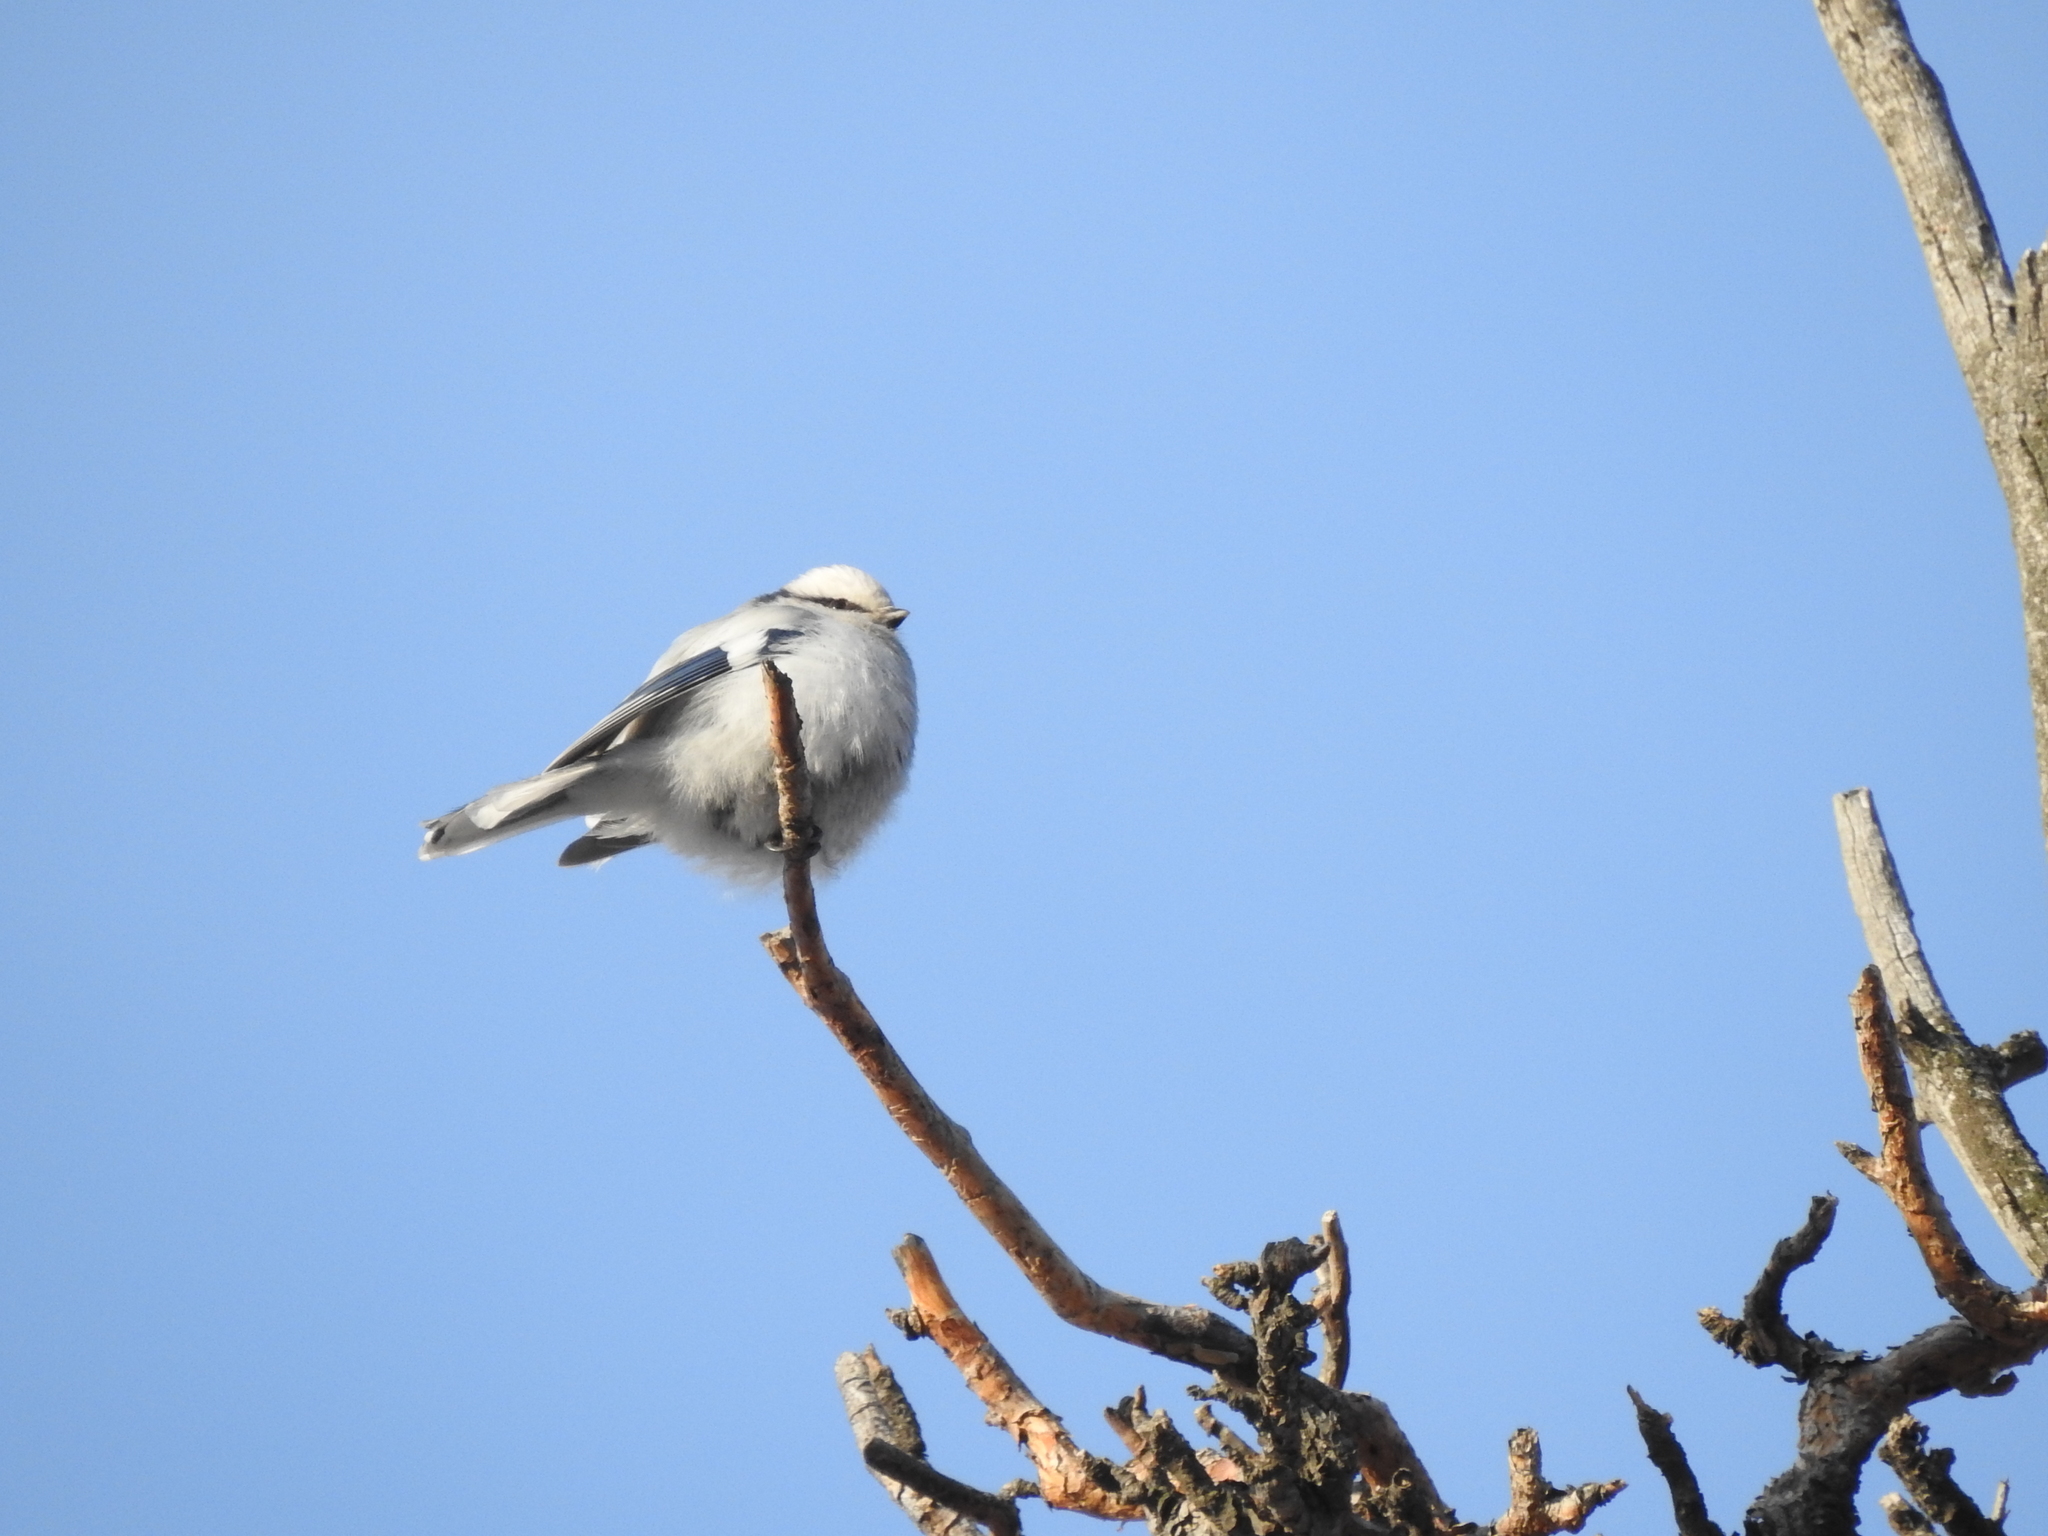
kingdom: Animalia
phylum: Chordata
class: Aves
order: Passeriformes
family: Paridae
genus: Cyanistes
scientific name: Cyanistes cyanus
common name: Azure tit
